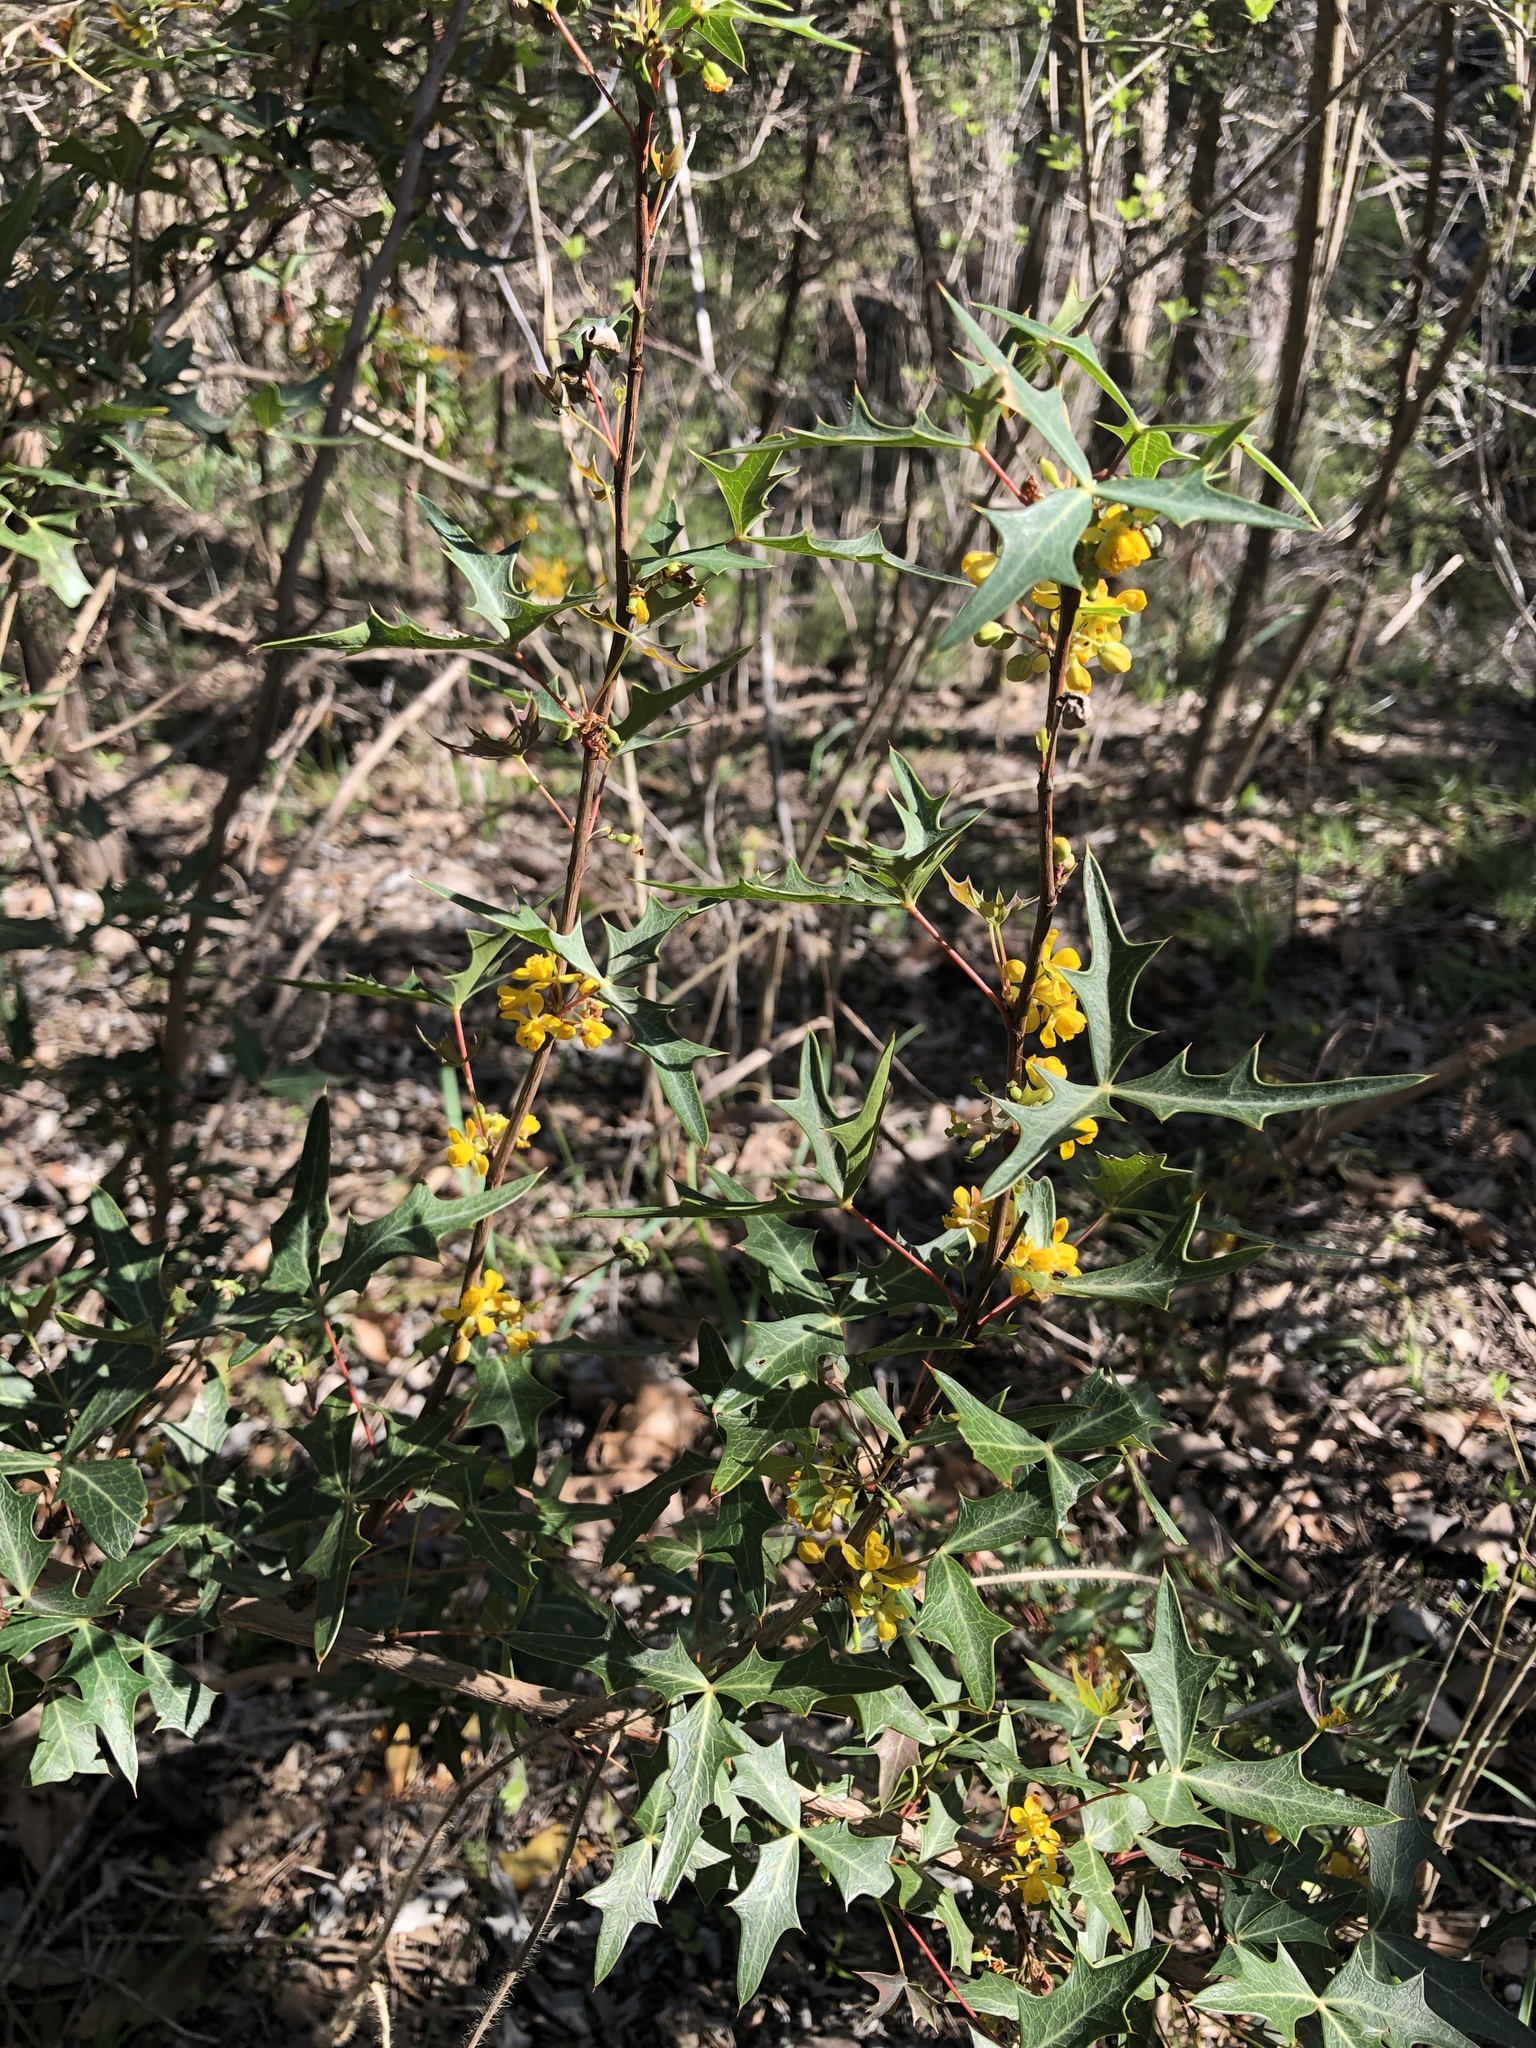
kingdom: Plantae
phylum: Tracheophyta
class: Magnoliopsida
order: Ranunculales
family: Berberidaceae
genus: Alloberberis
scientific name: Alloberberis trifoliolata
